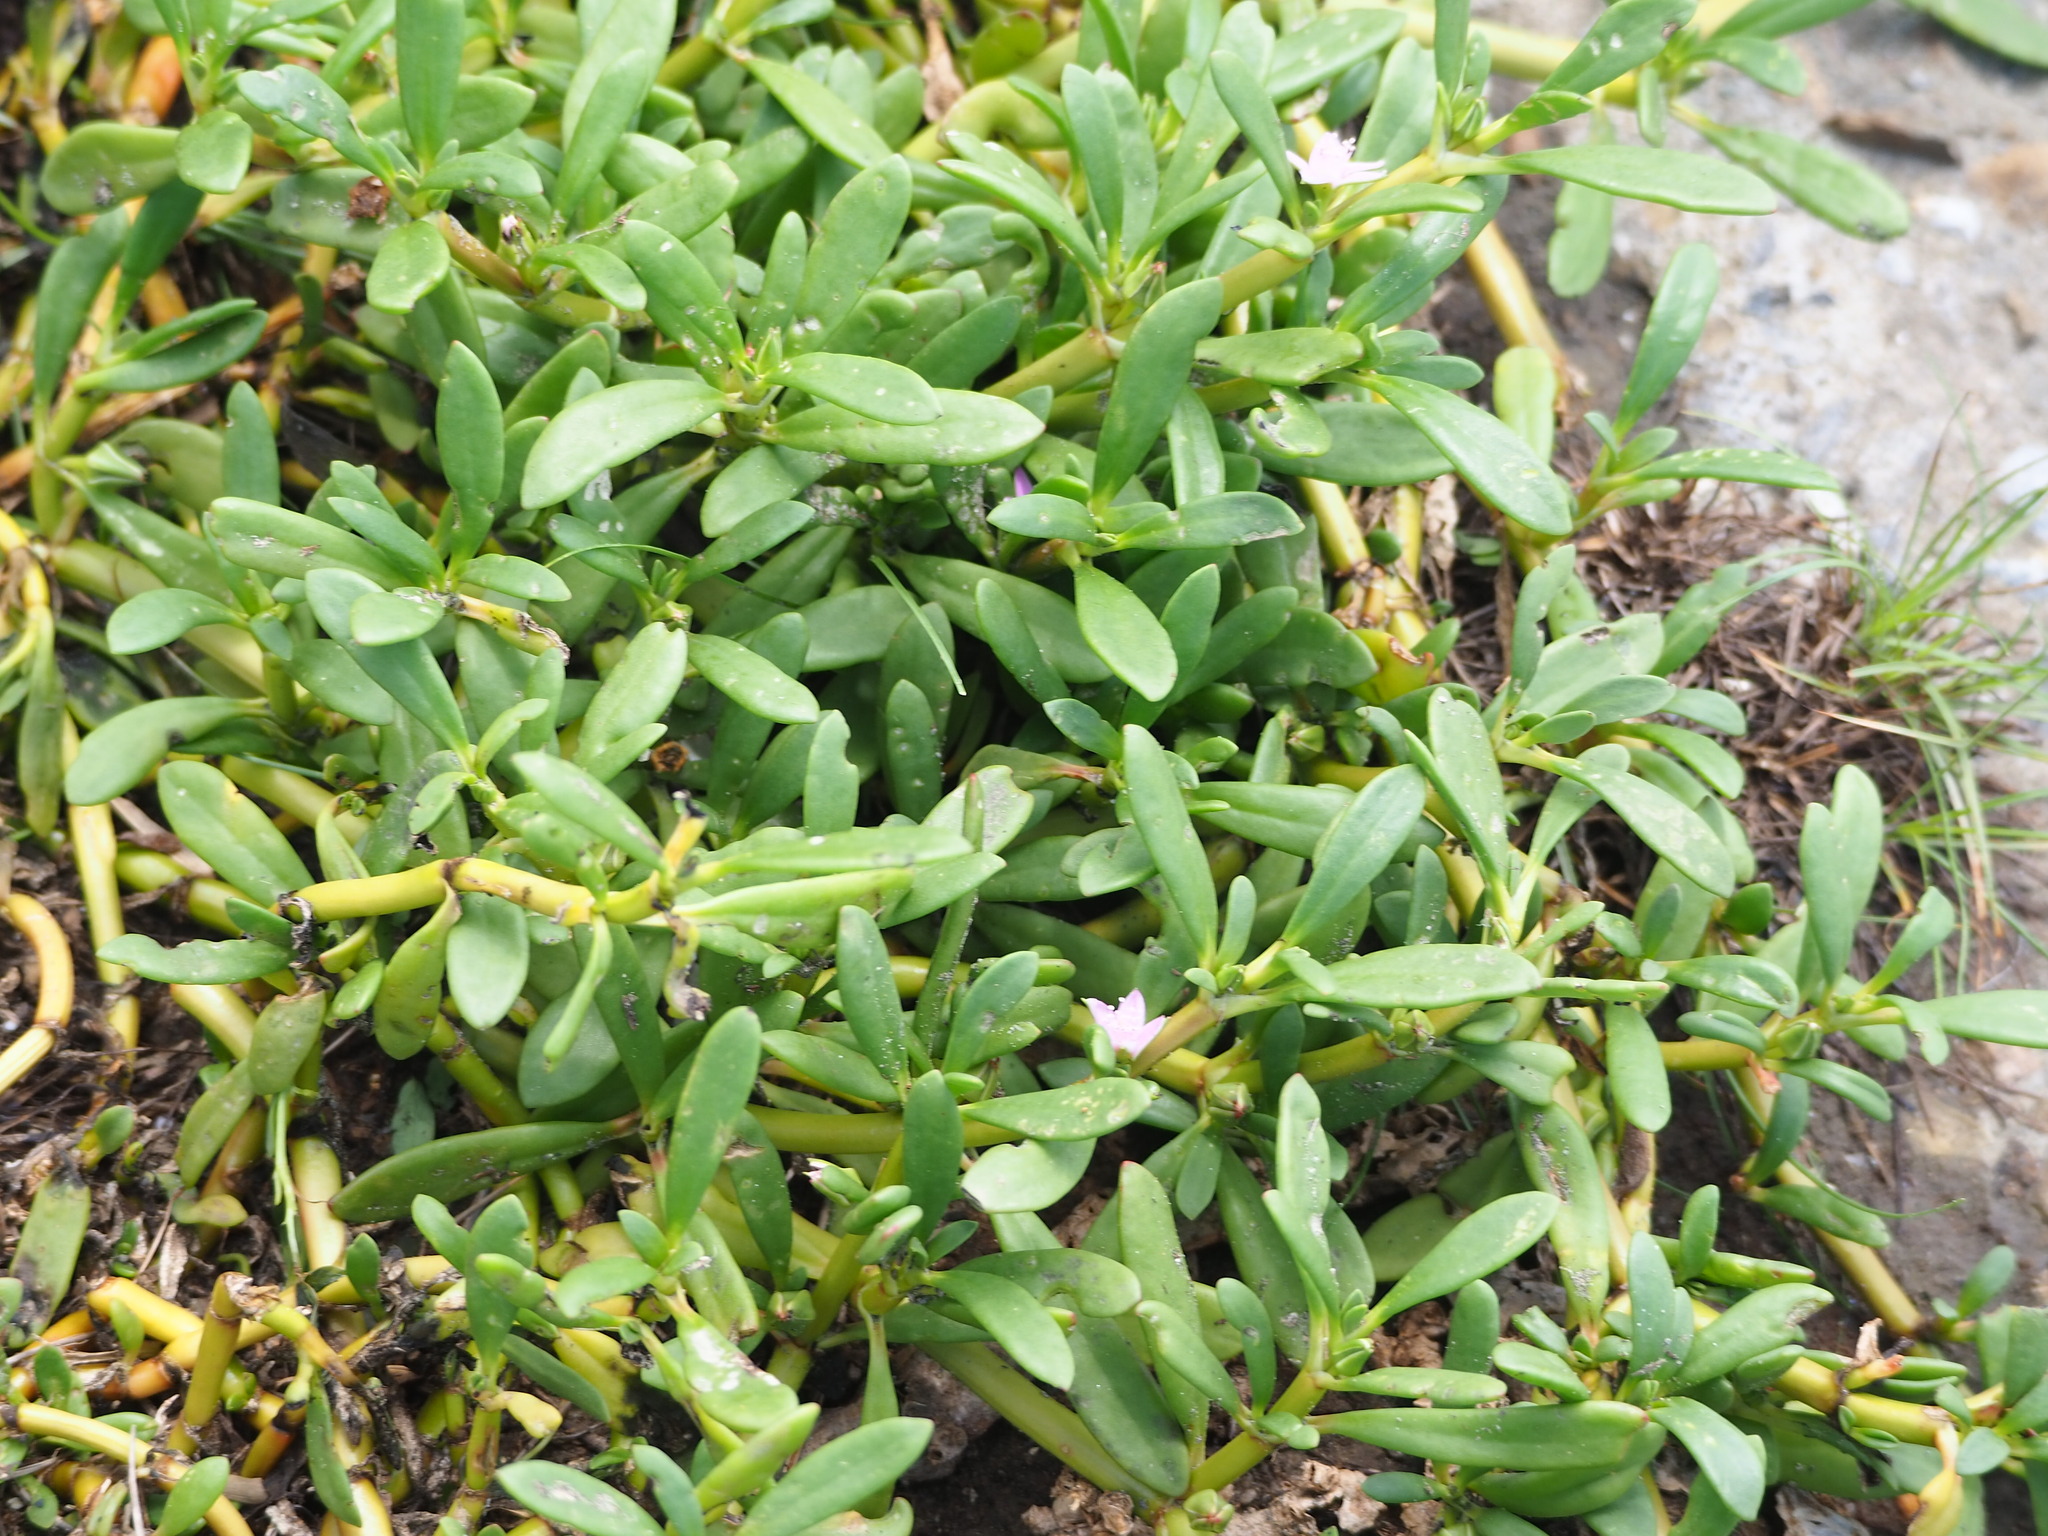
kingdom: Plantae
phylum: Tracheophyta
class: Magnoliopsida
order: Caryophyllales
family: Aizoaceae
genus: Sesuvium
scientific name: Sesuvium portulacastrum
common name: Sea-purslane
